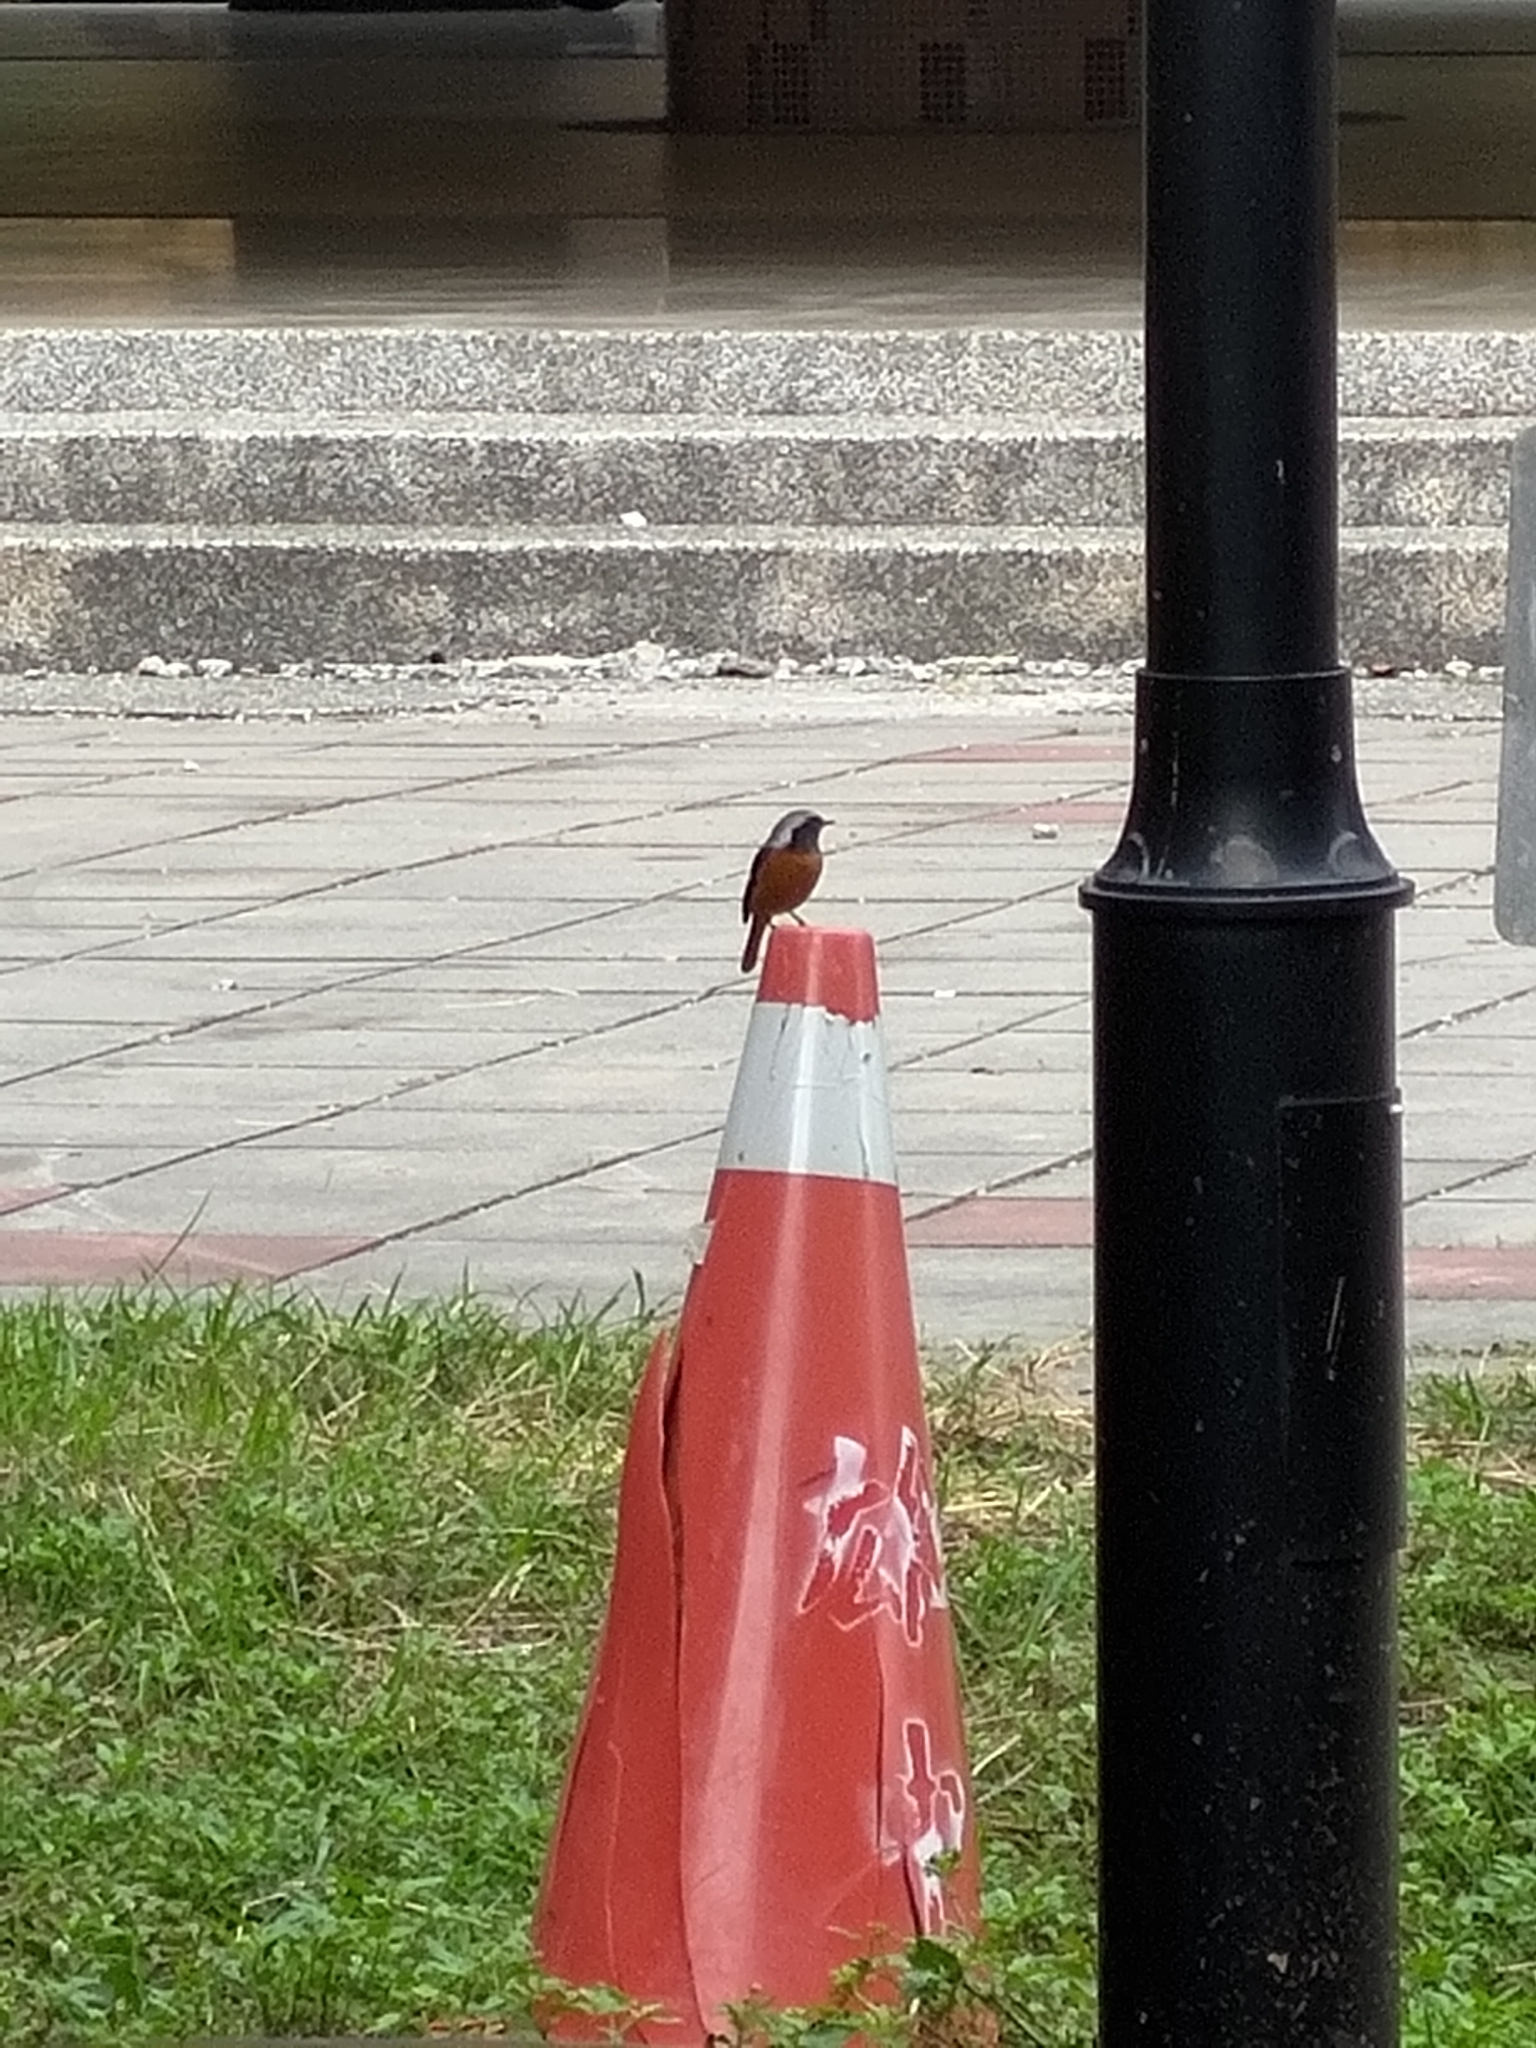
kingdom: Animalia
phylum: Chordata
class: Aves
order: Passeriformes
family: Muscicapidae
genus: Phoenicurus
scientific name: Phoenicurus auroreus
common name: Daurian redstart
